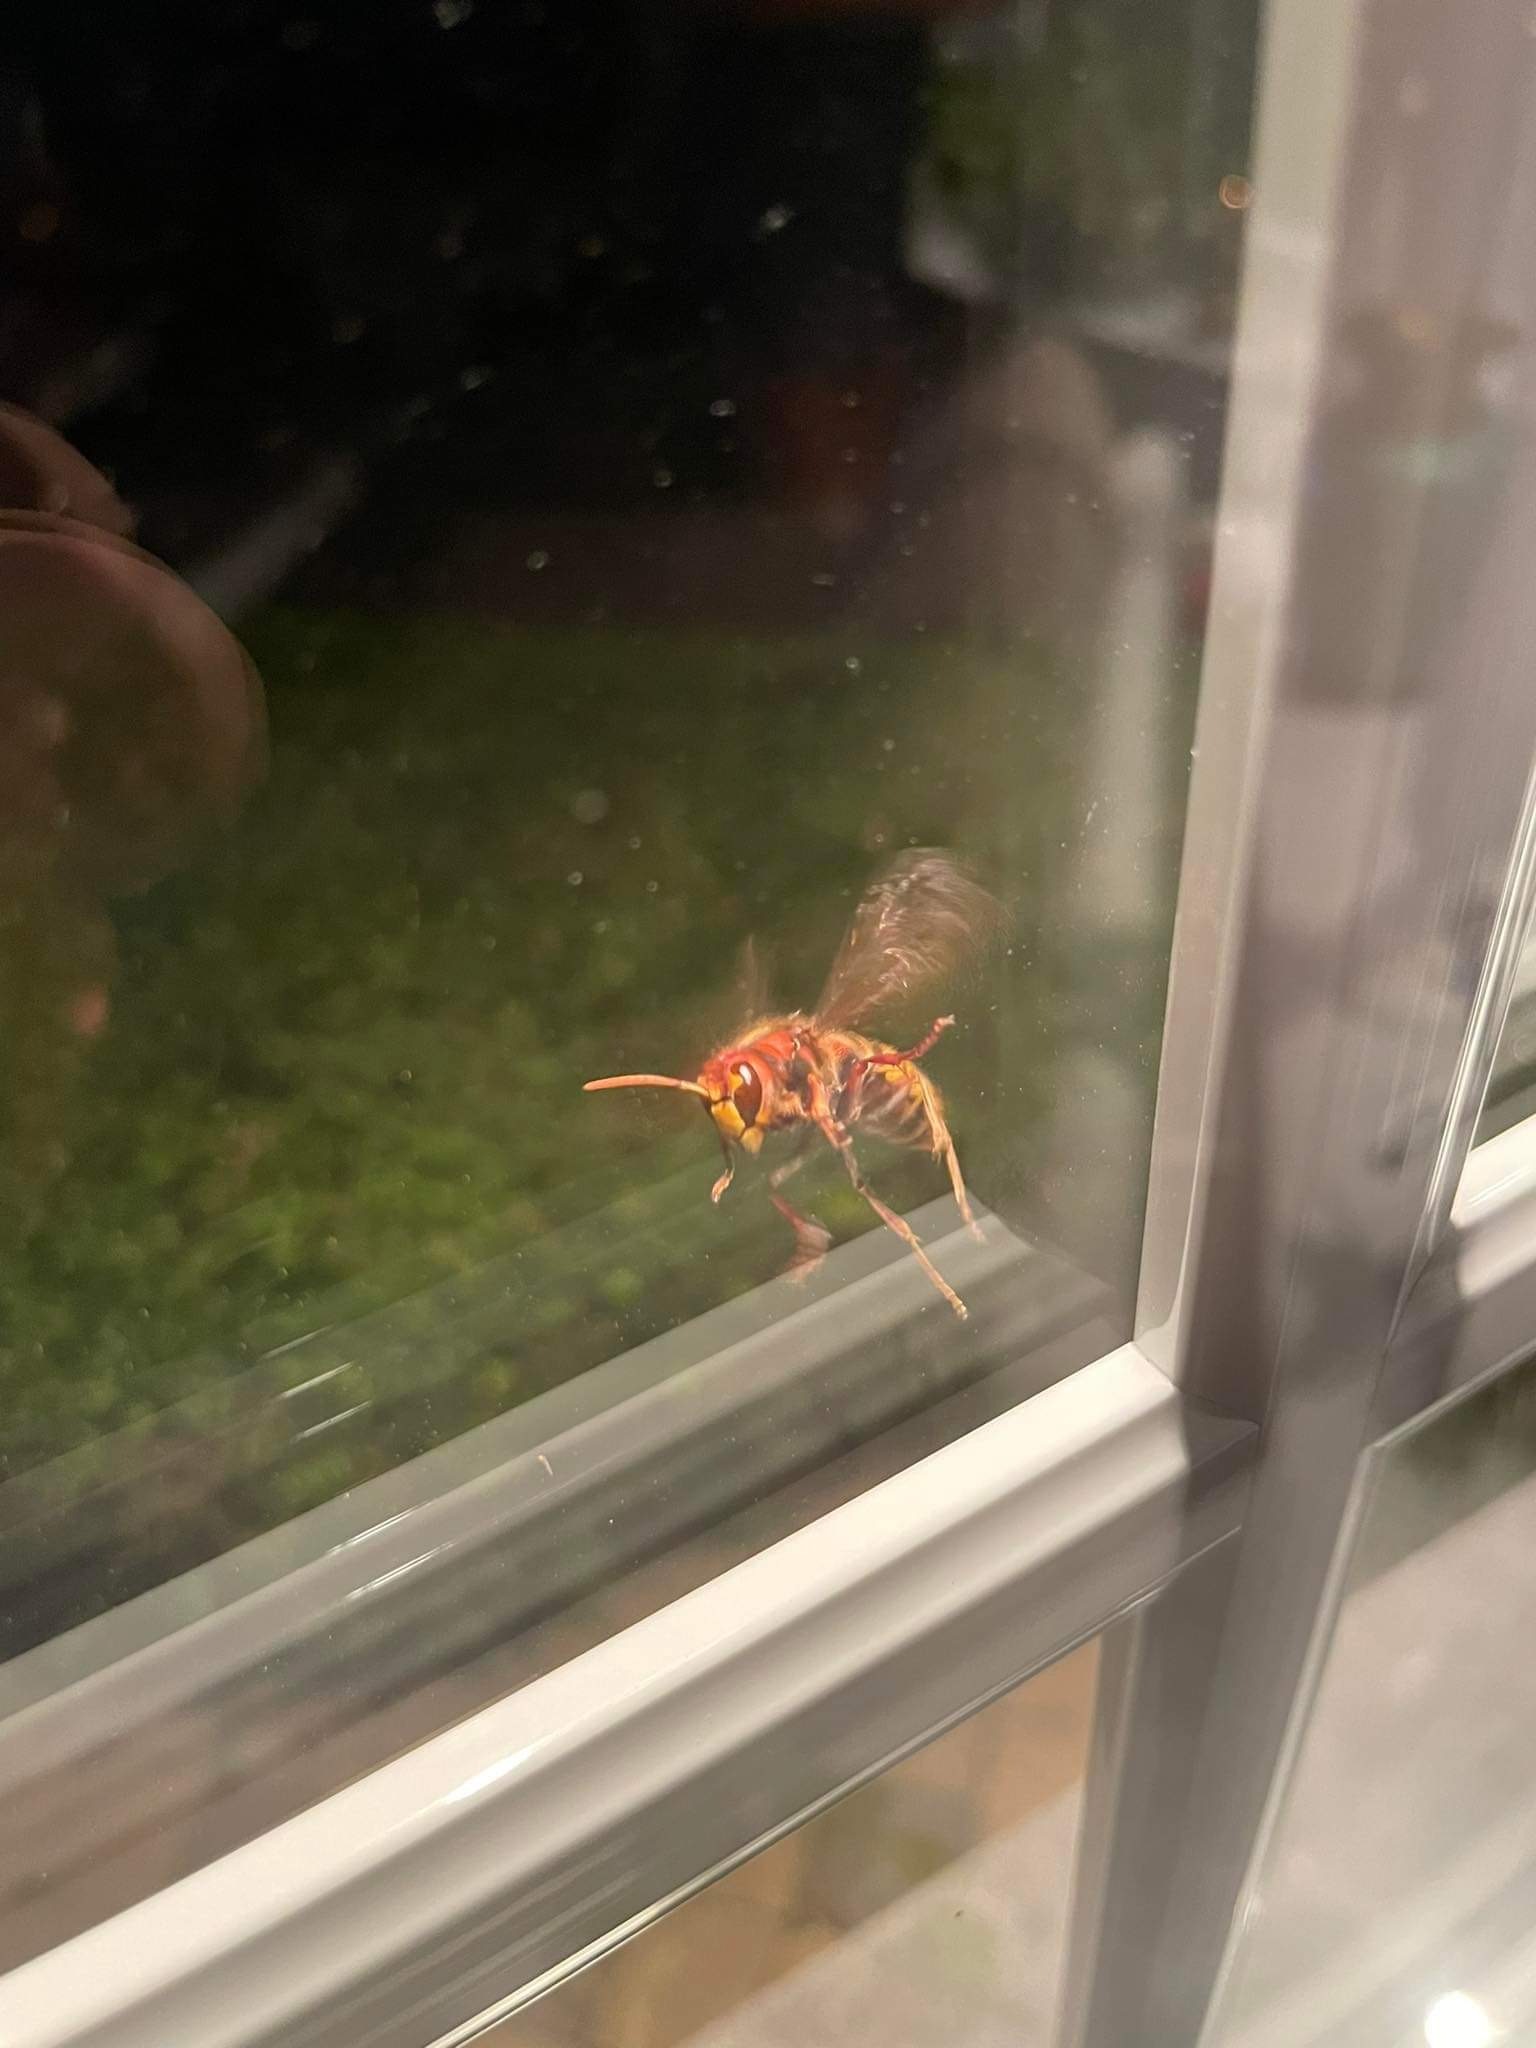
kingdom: Animalia
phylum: Arthropoda
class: Insecta
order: Hymenoptera
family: Vespidae
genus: Vespa
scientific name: Vespa crabro
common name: Hornet
